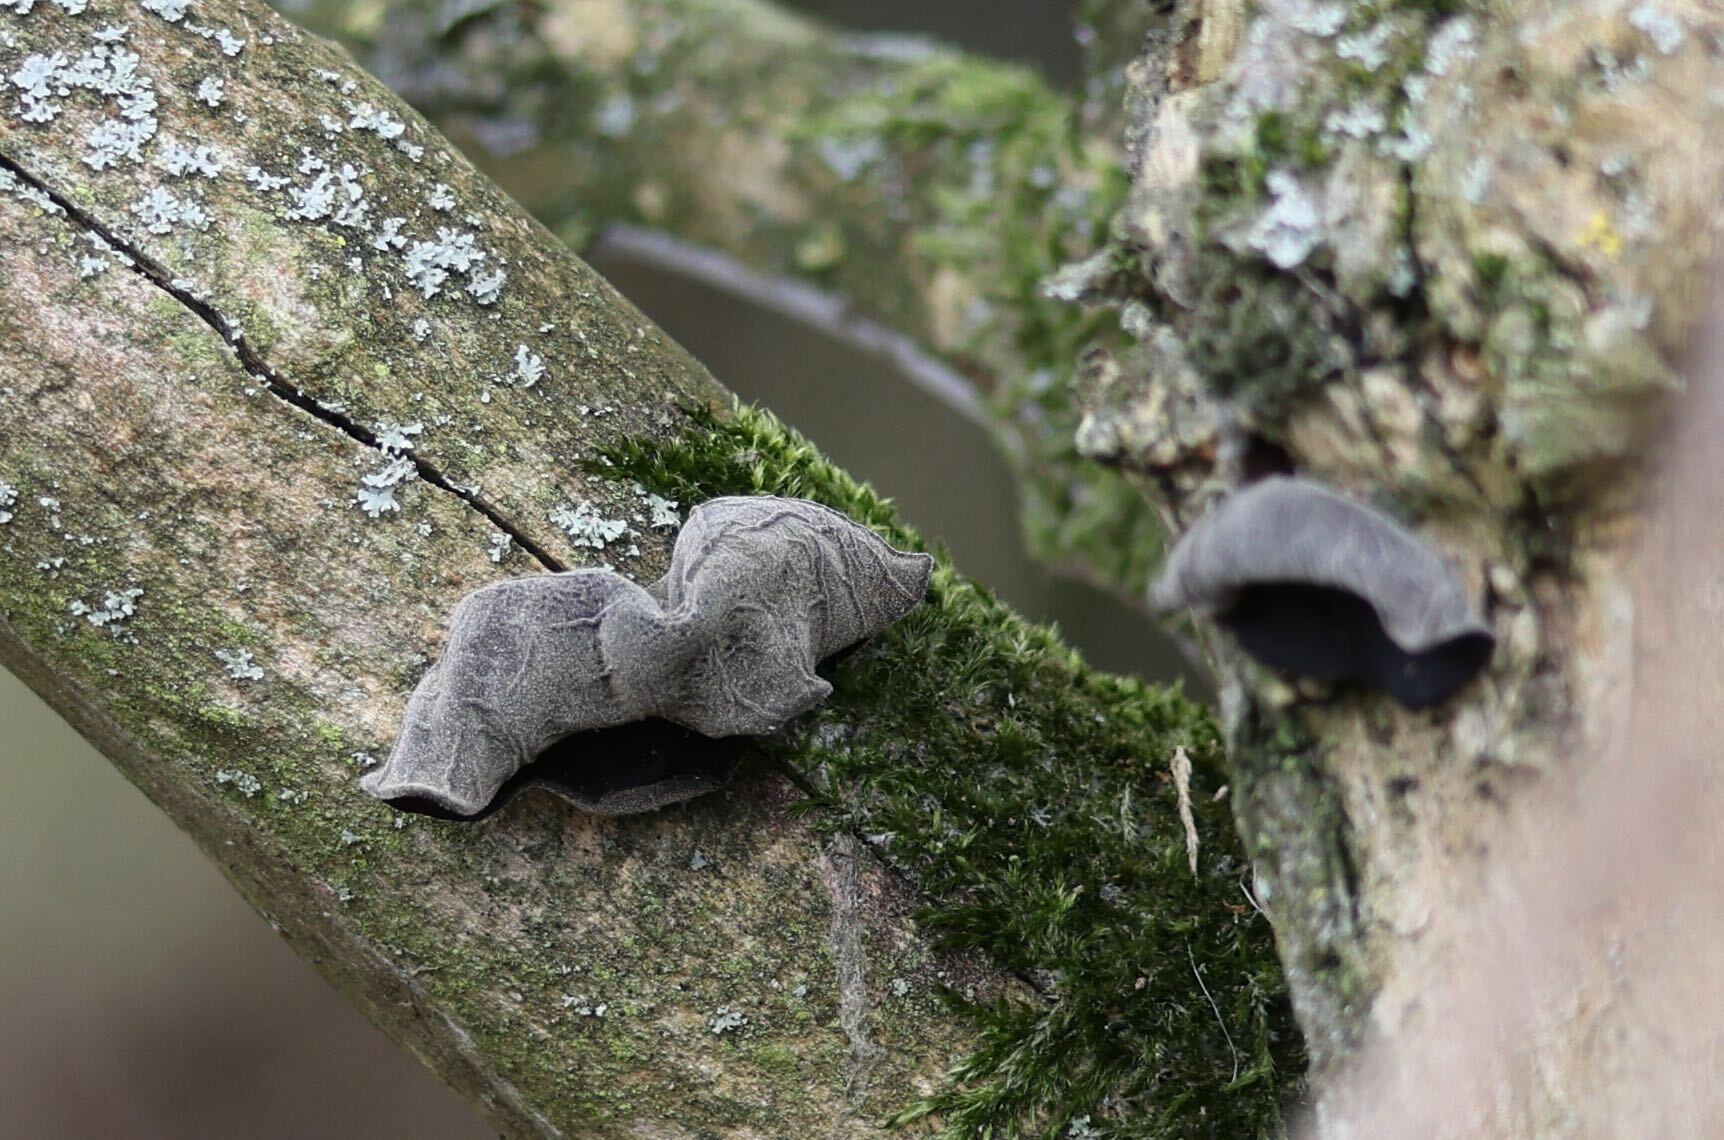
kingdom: Fungi
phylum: Basidiomycota
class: Agaricomycetes
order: Auriculariales
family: Auriculariaceae
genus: Auricularia
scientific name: Auricularia auricula-judae
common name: Jelly ear
